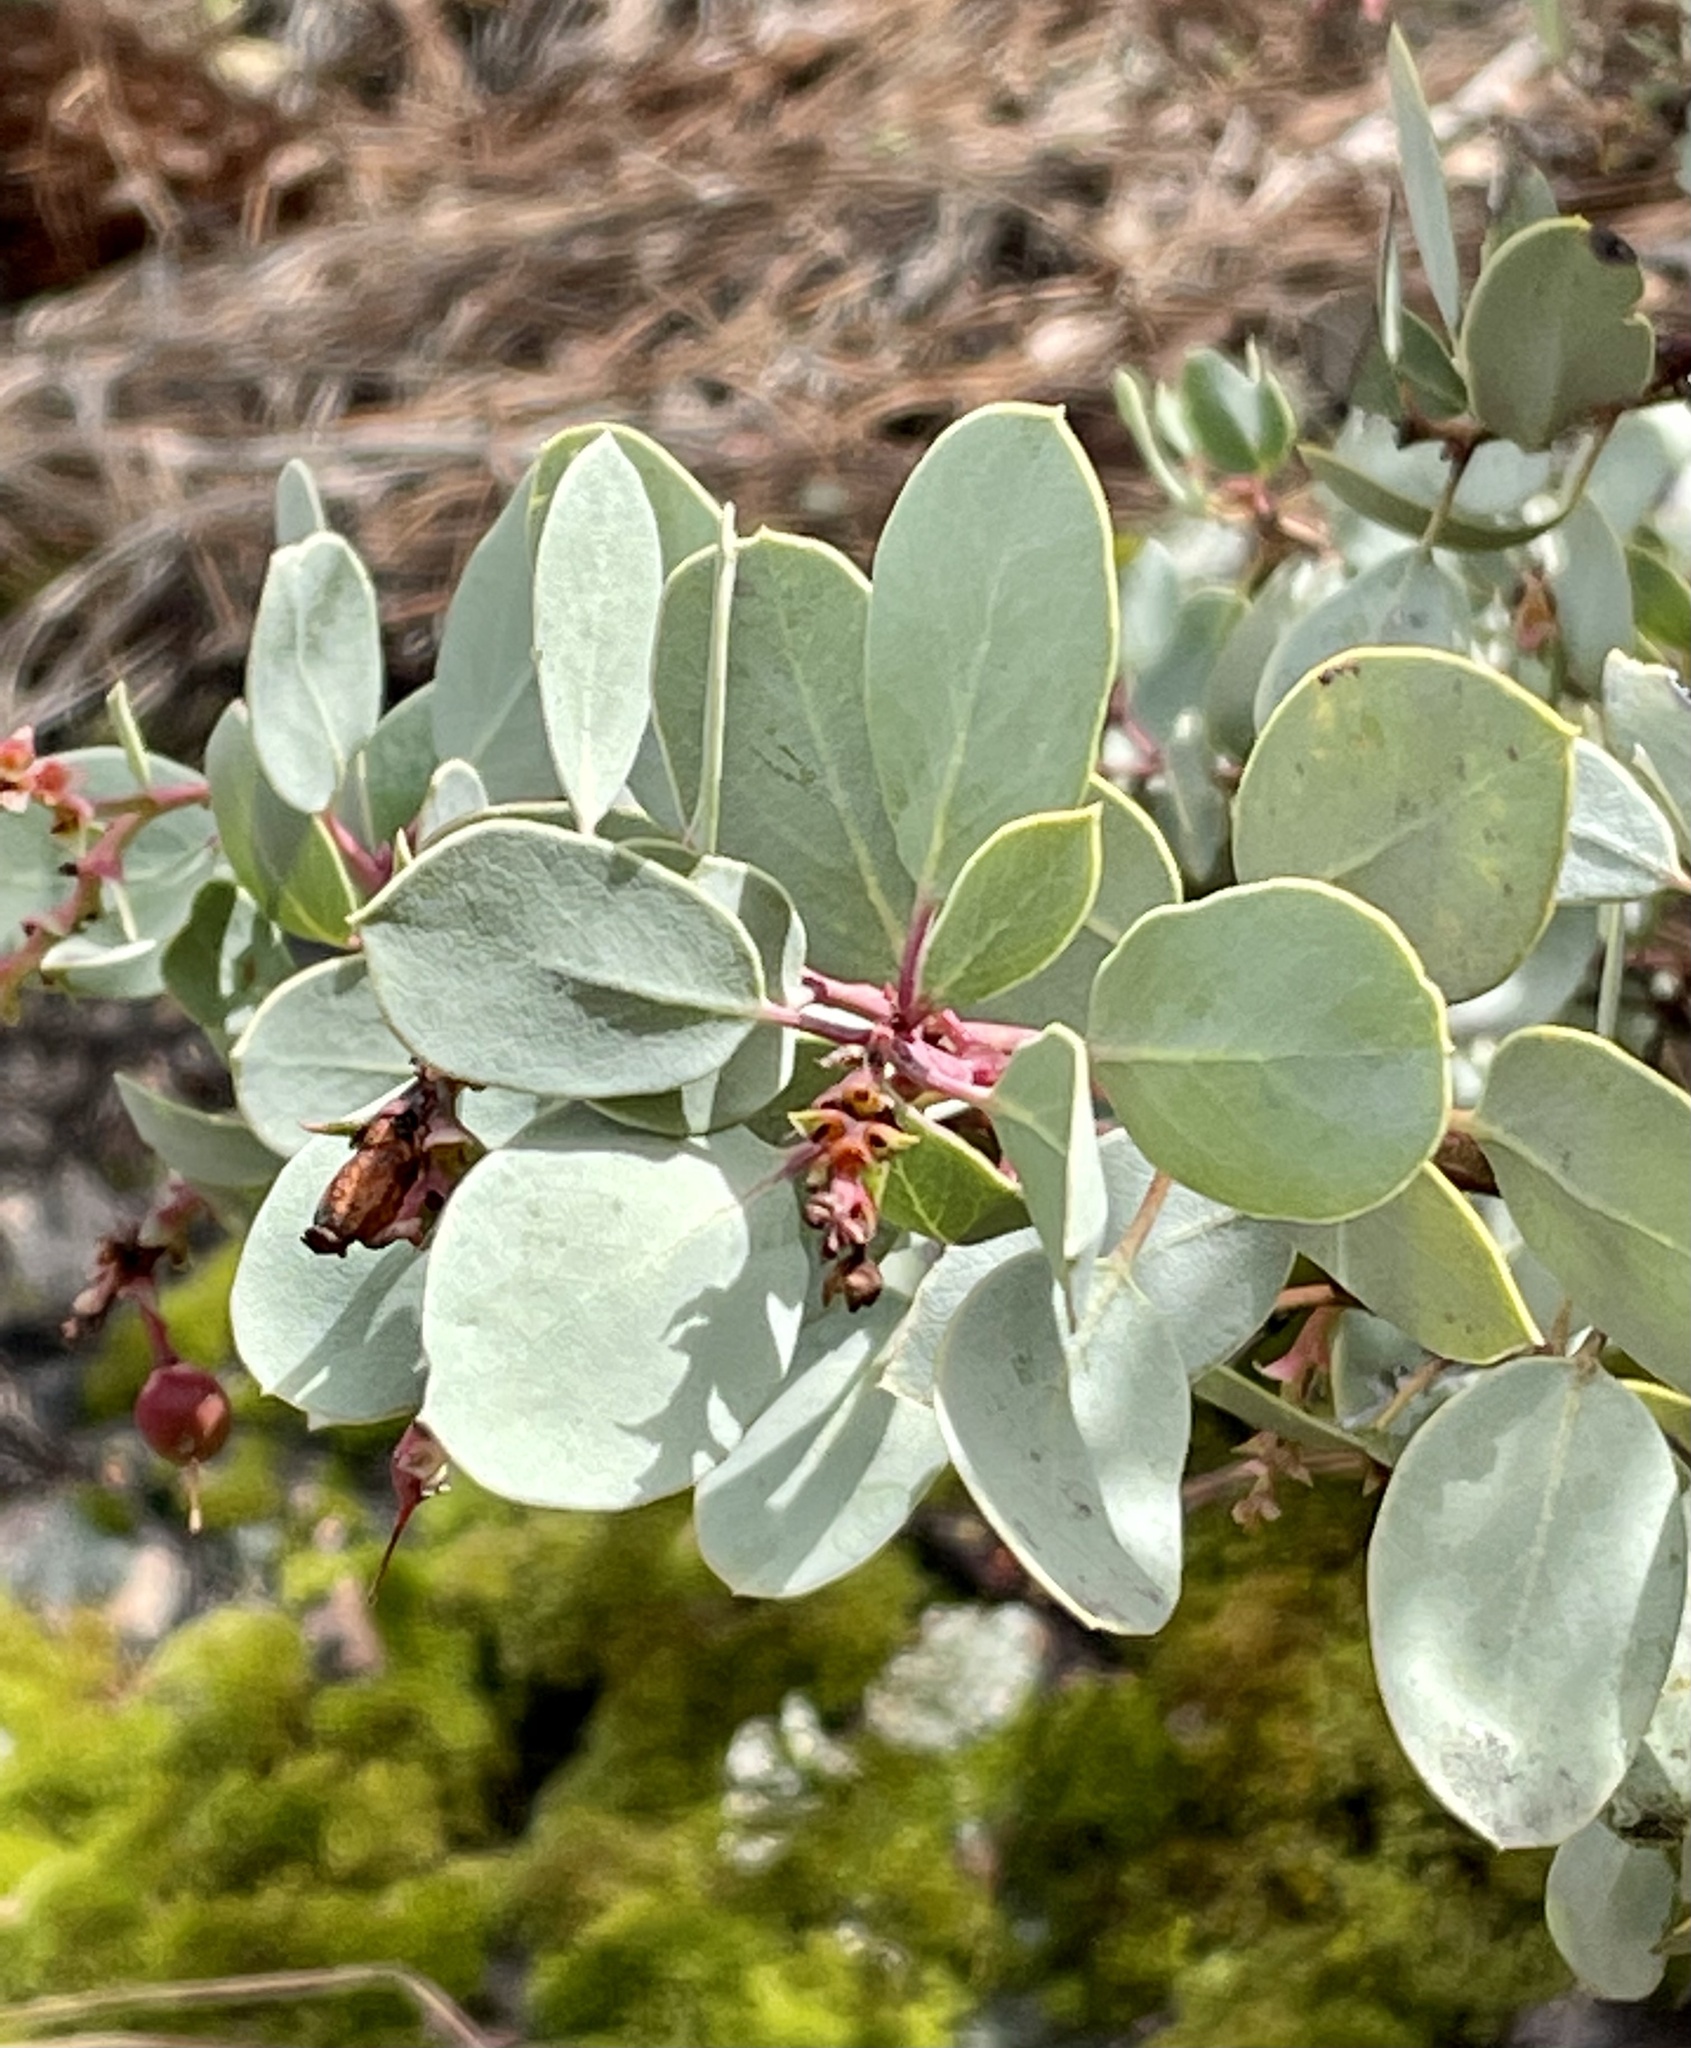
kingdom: Plantae
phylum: Tracheophyta
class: Magnoliopsida
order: Ericales
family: Ericaceae
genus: Arctostaphylos
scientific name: Arctostaphylos glauca
